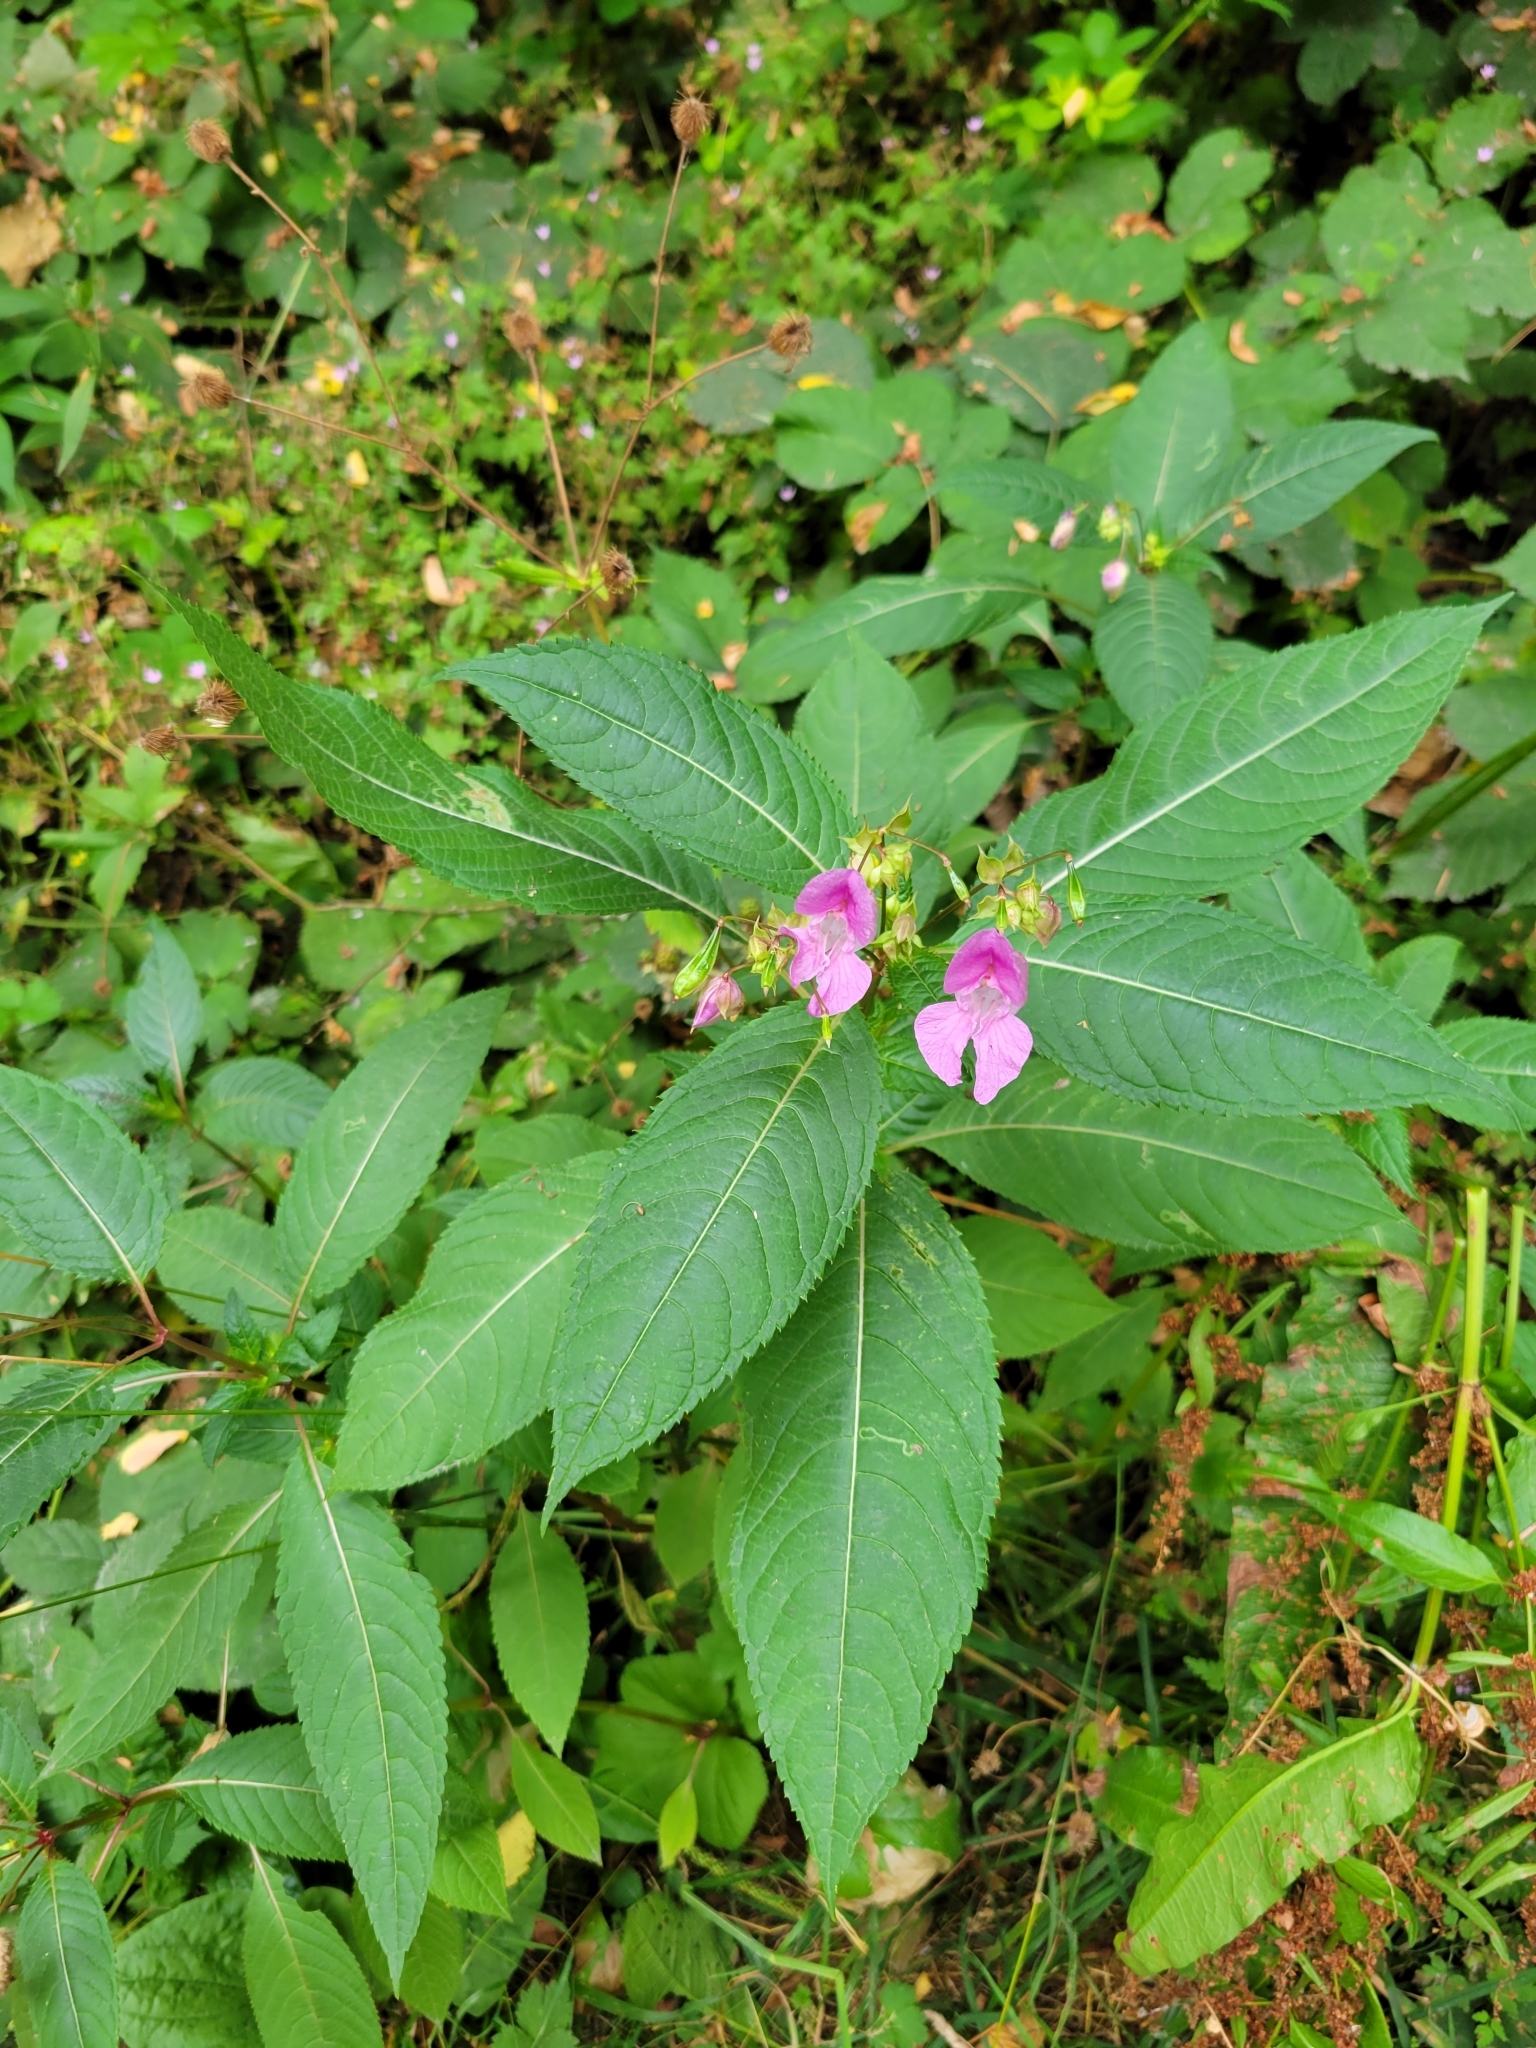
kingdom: Plantae
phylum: Tracheophyta
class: Magnoliopsida
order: Ericales
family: Balsaminaceae
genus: Impatiens
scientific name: Impatiens glandulifera
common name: Himalayan balsam
